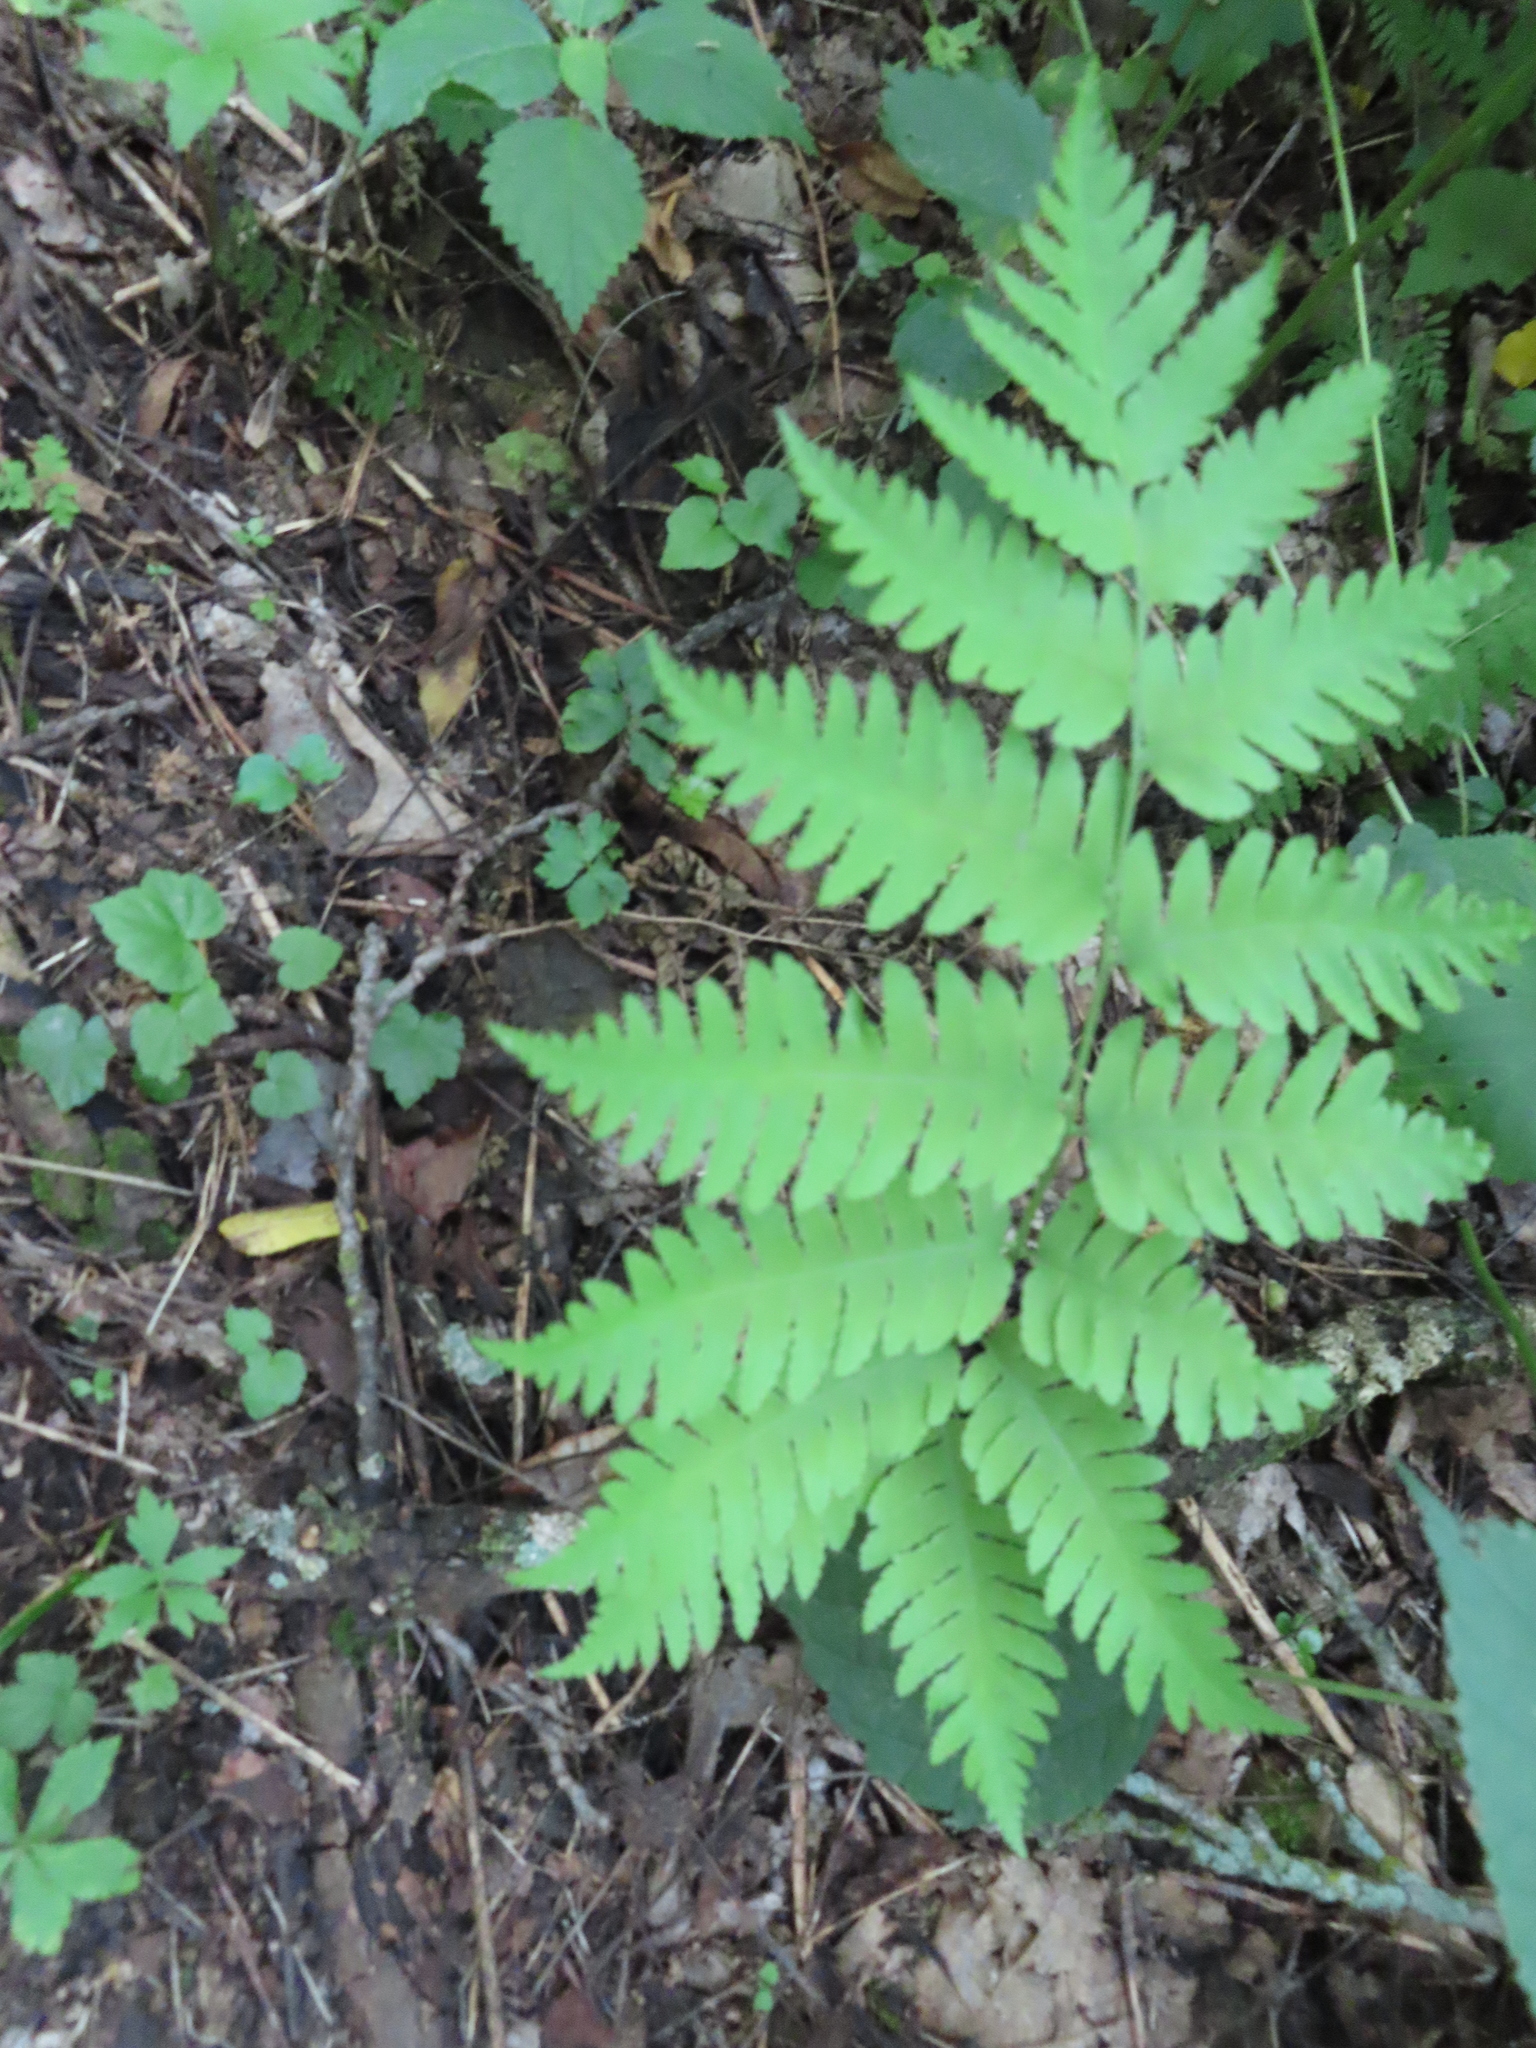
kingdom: Plantae
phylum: Tracheophyta
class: Polypodiopsida
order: Polypodiales
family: Dryopteridaceae
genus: Dryopteris
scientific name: Dryopteris goldieana
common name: Goldie's fern
